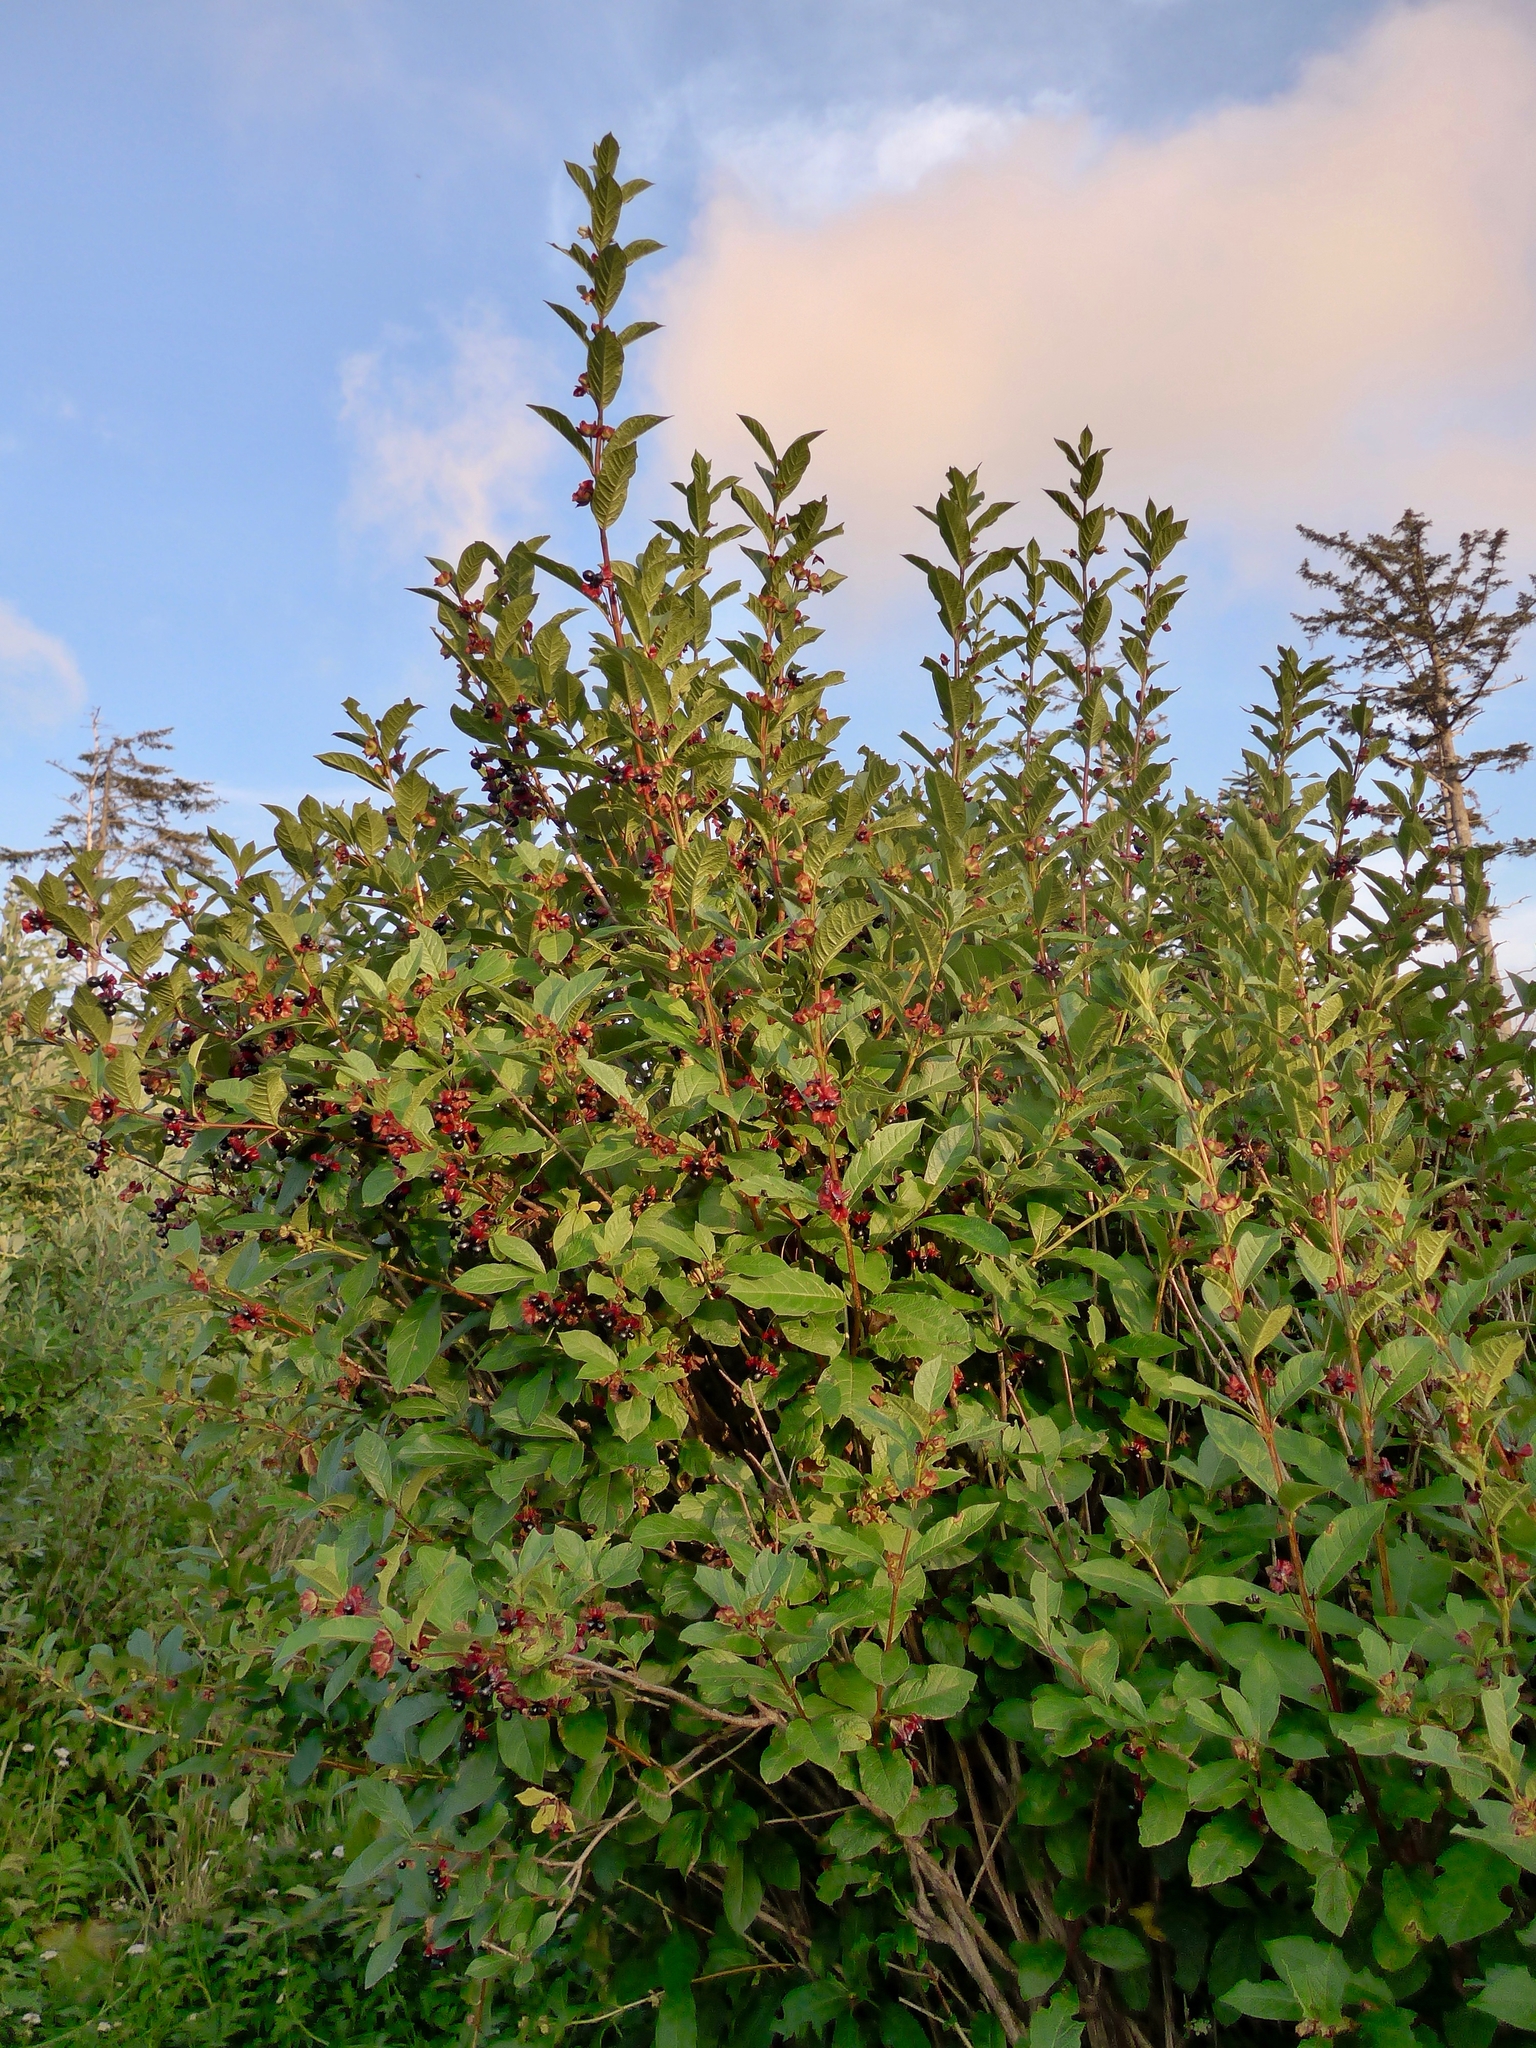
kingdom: Plantae
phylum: Tracheophyta
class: Magnoliopsida
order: Dipsacales
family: Caprifoliaceae
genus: Lonicera
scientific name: Lonicera involucrata
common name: Californian honeysuckle
